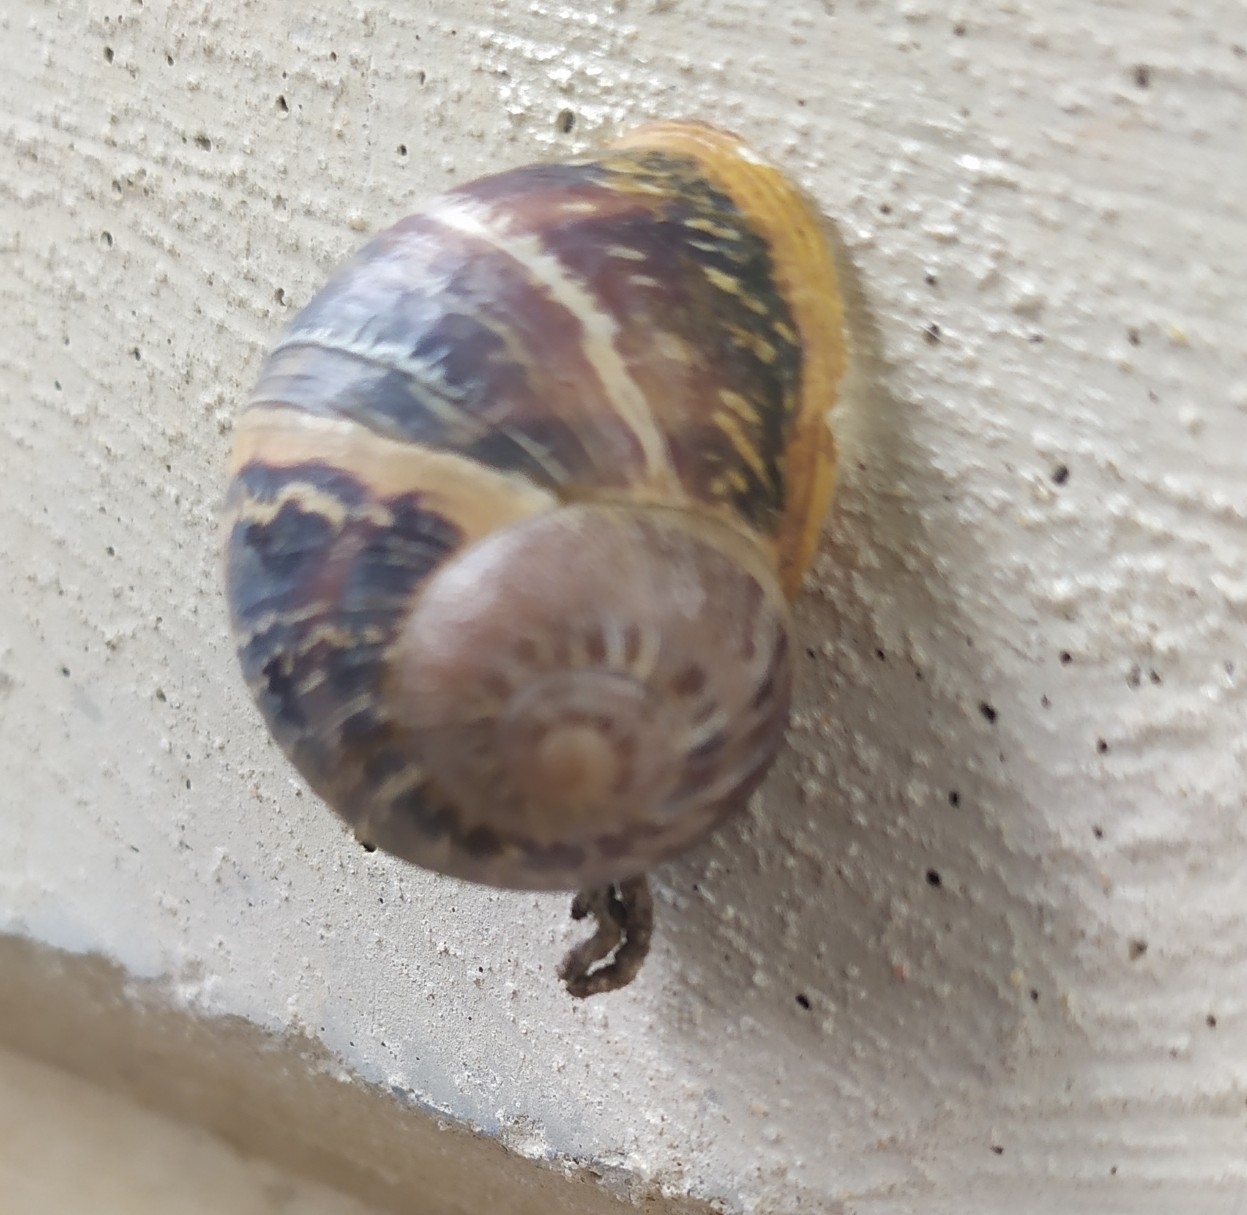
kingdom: Animalia
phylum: Mollusca
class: Gastropoda
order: Stylommatophora
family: Helicidae
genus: Cornu
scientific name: Cornu aspersum
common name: Brown garden snail
